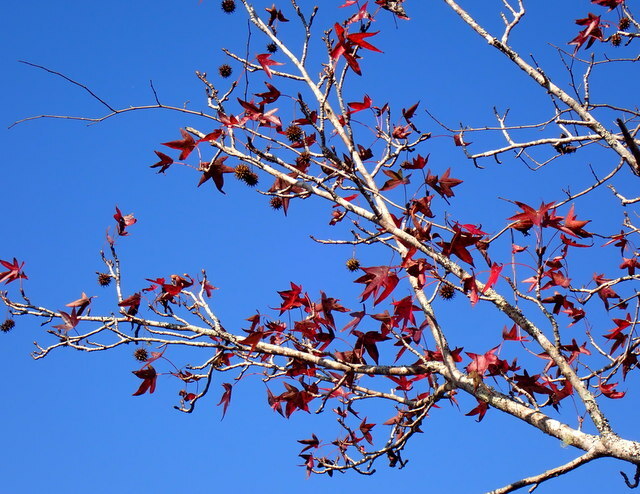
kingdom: Plantae
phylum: Tracheophyta
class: Magnoliopsida
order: Saxifragales
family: Altingiaceae
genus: Liquidambar
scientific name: Liquidambar styraciflua
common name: Sweet gum
